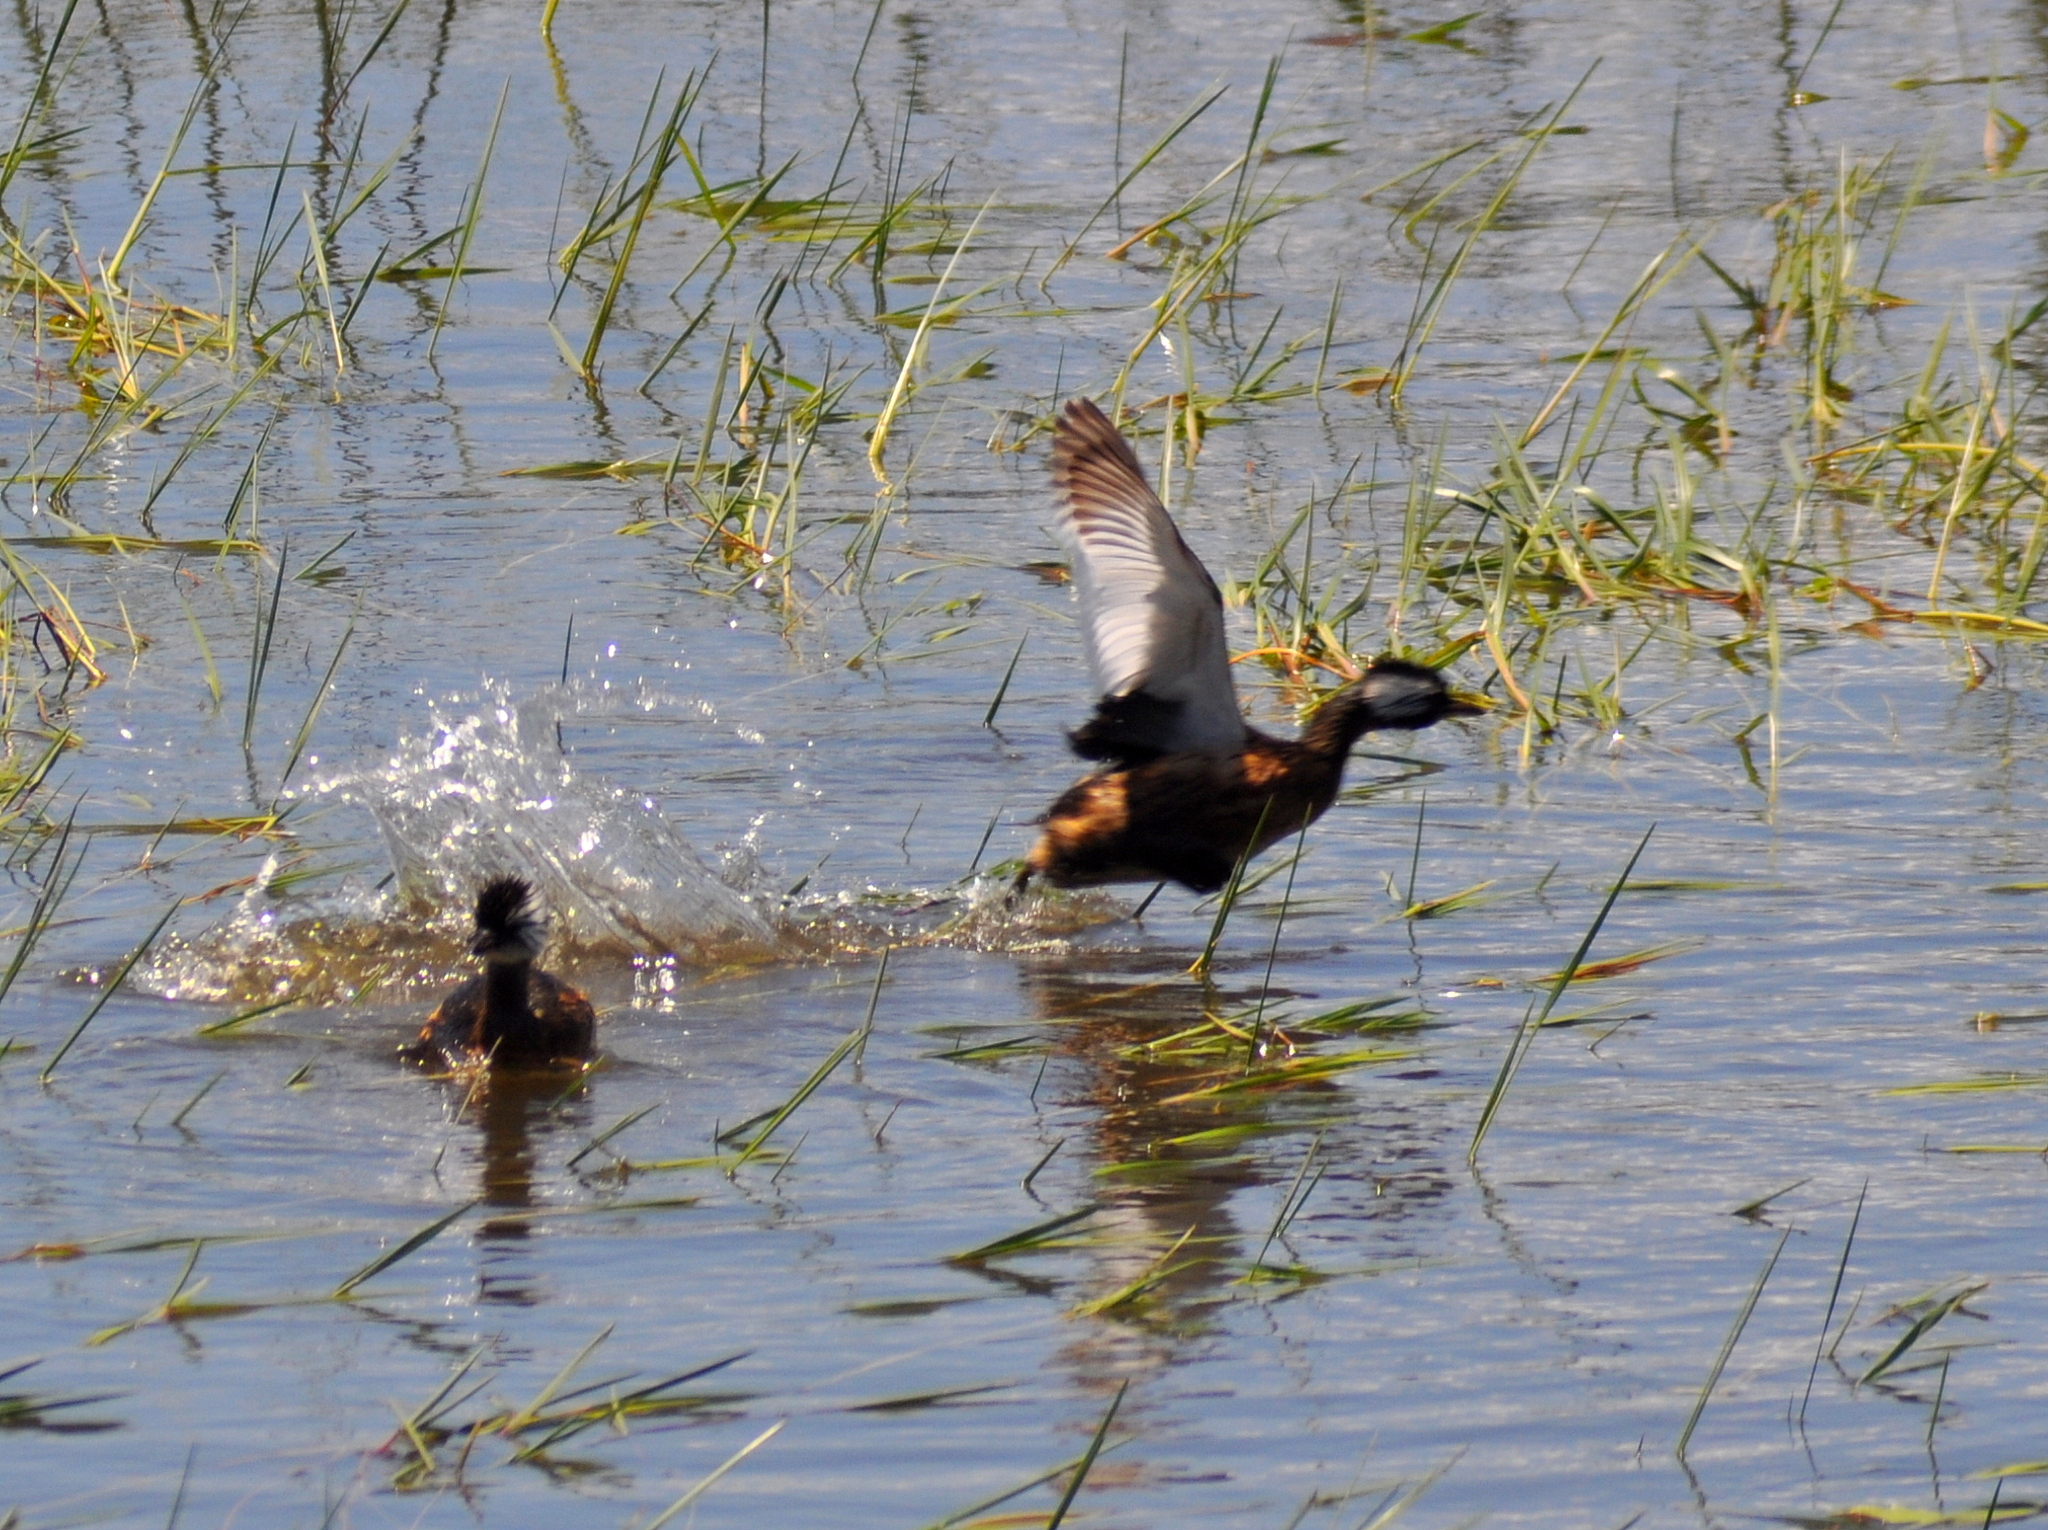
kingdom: Animalia
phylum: Chordata
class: Aves
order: Podicipediformes
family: Podicipedidae
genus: Rollandia
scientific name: Rollandia rolland
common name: White-tufted grebe
